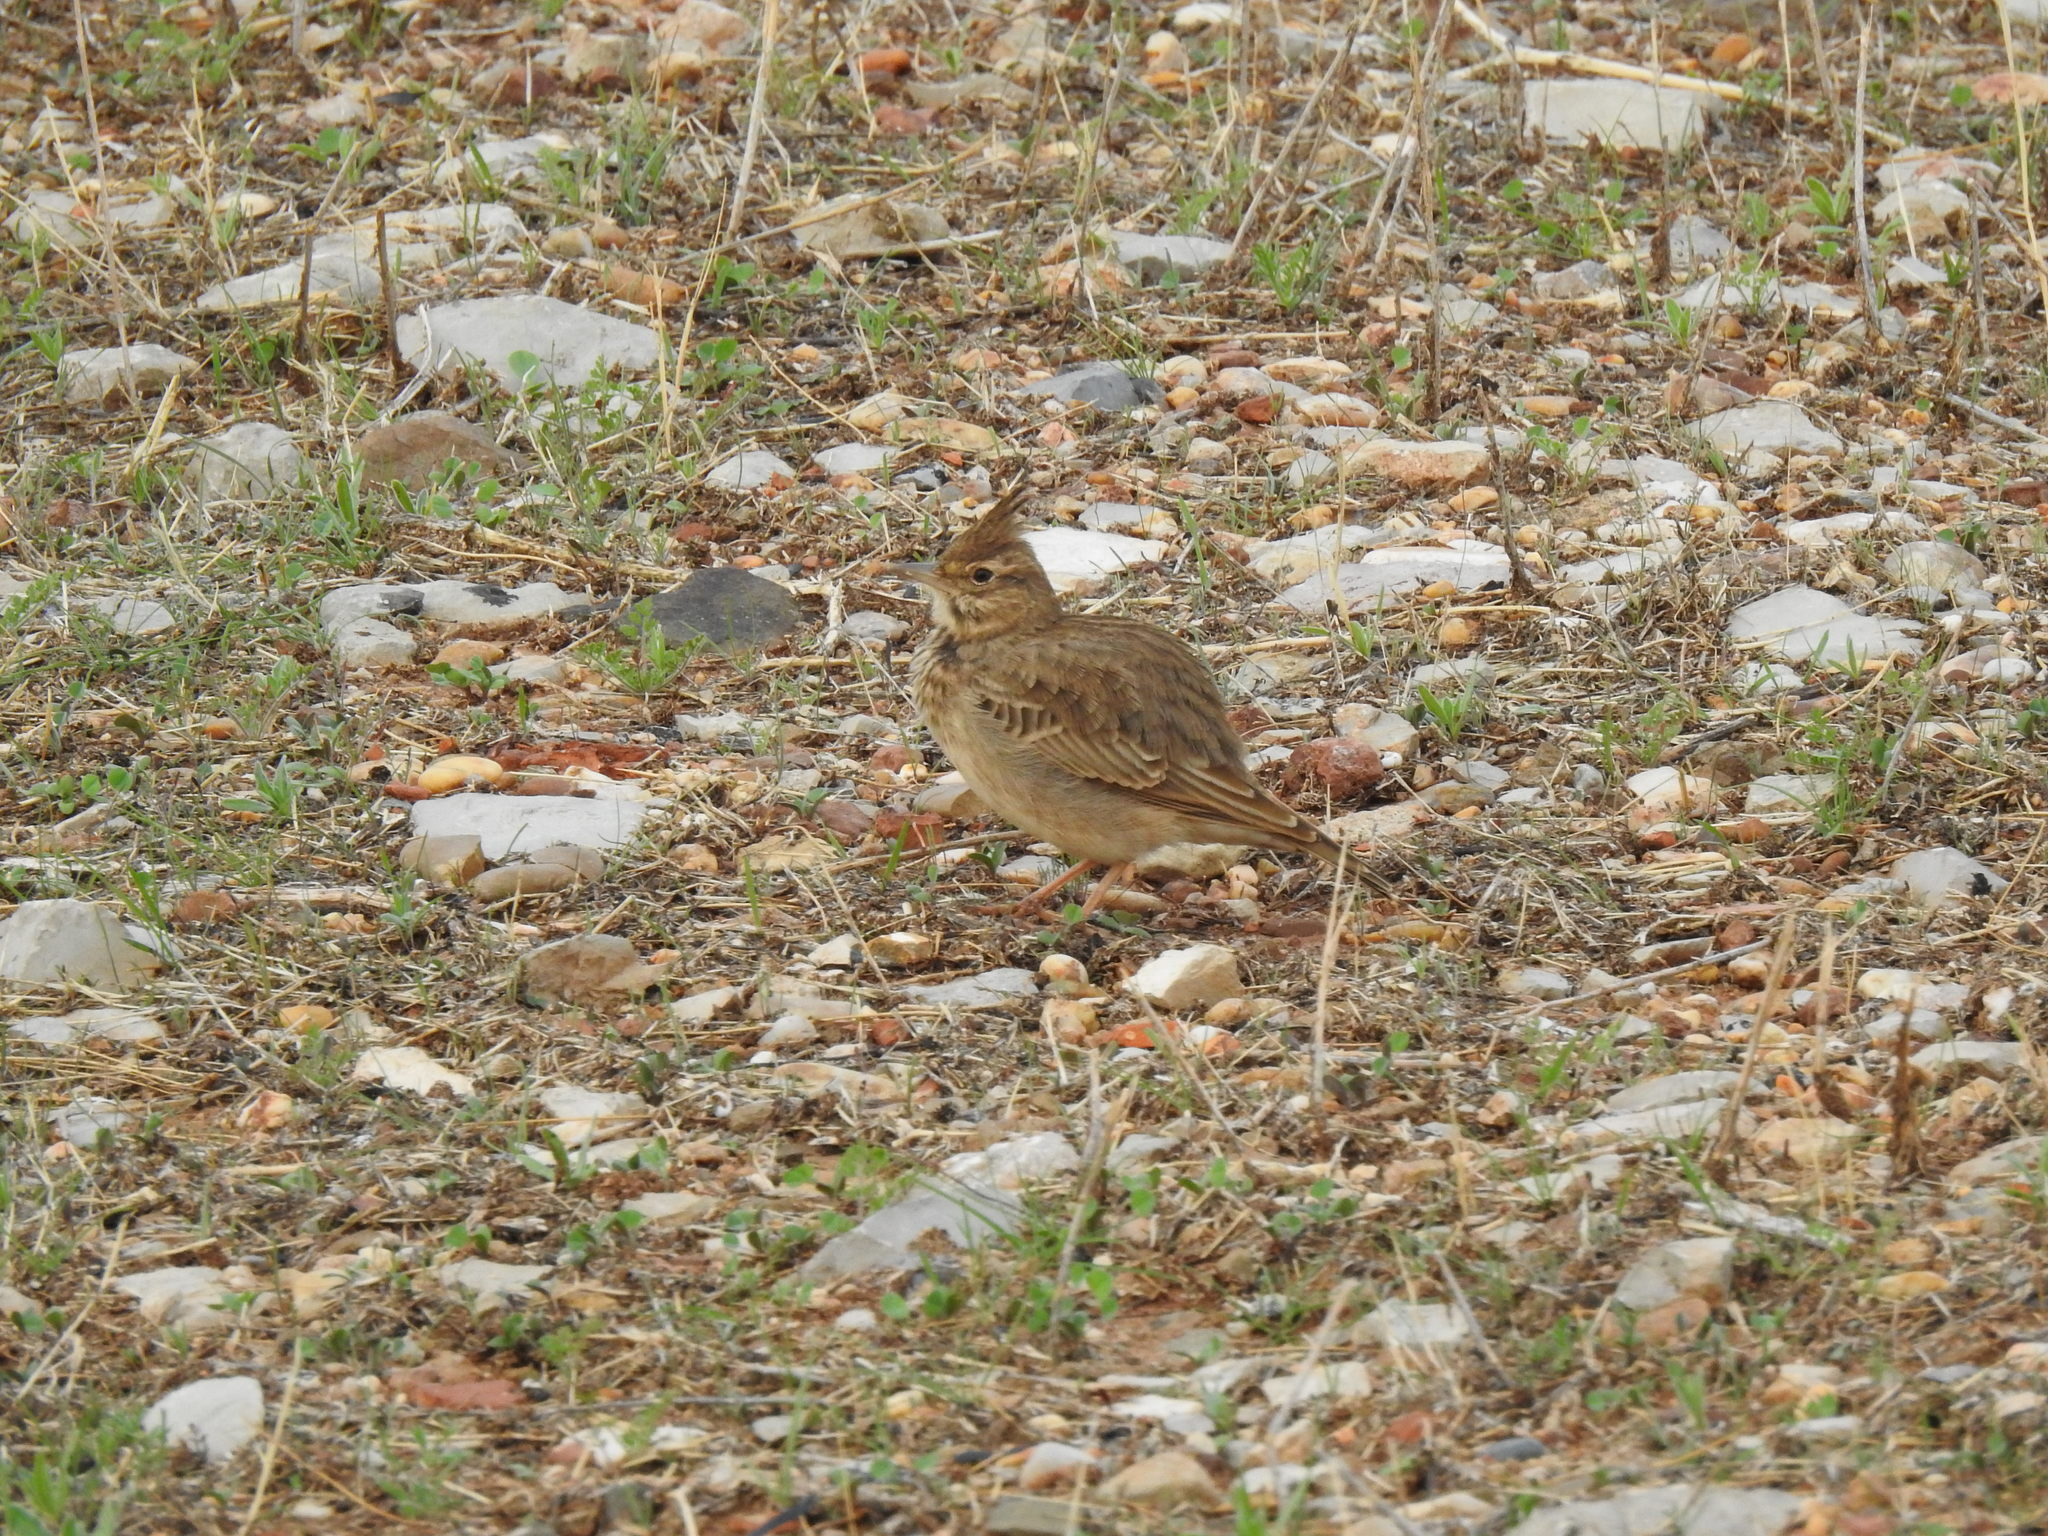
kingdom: Animalia
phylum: Chordata
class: Aves
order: Passeriformes
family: Alaudidae
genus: Galerida
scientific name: Galerida cristata
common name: Crested lark
